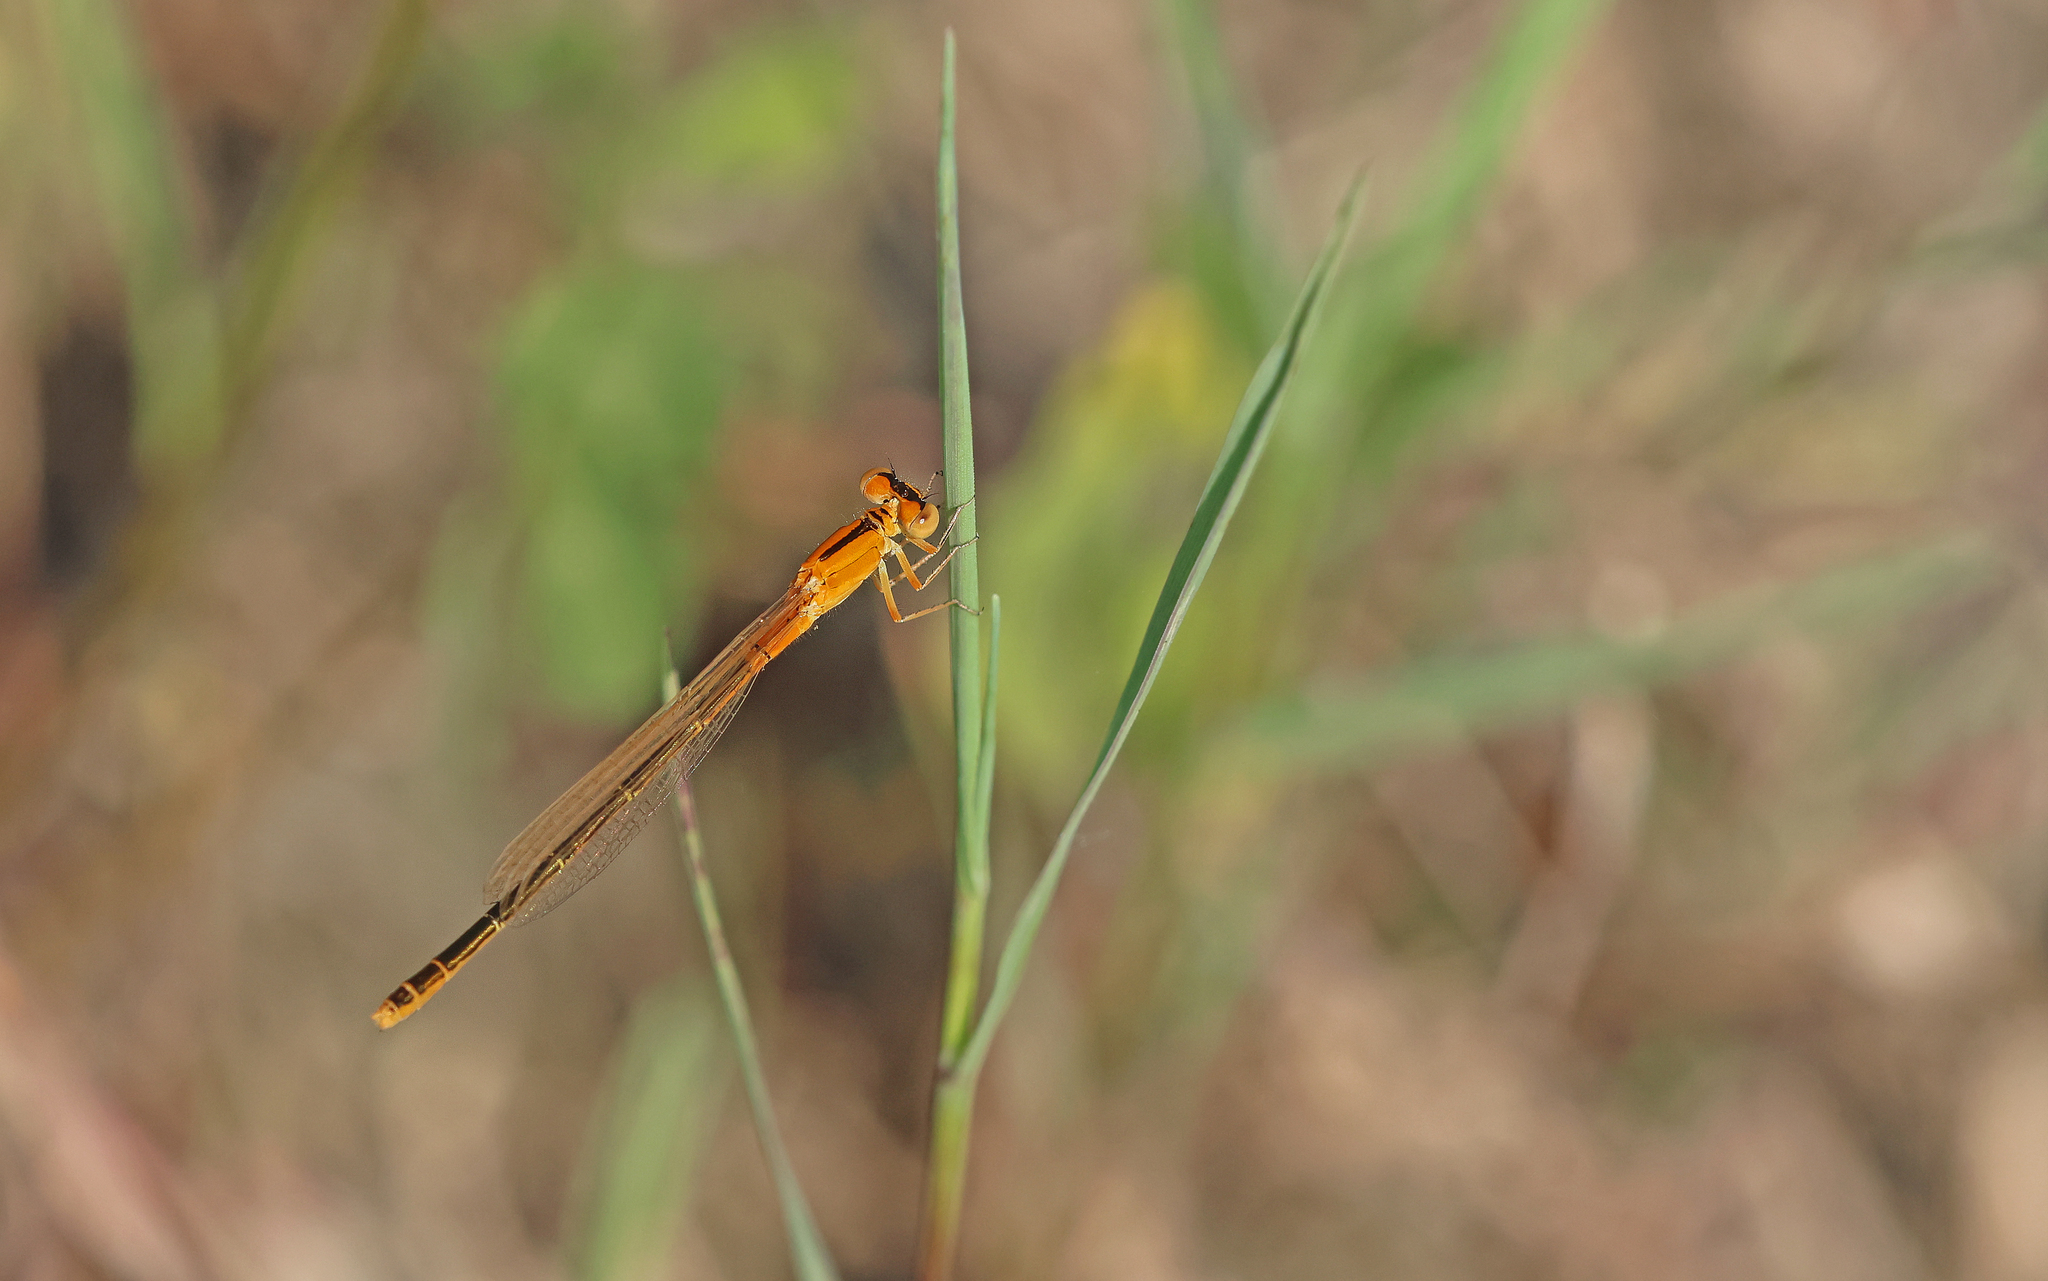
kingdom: Animalia
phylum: Arthropoda
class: Insecta
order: Odonata
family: Coenagrionidae
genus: Ischnura
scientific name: Ischnura pumilio
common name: Scarce blue-tailed damselfly
